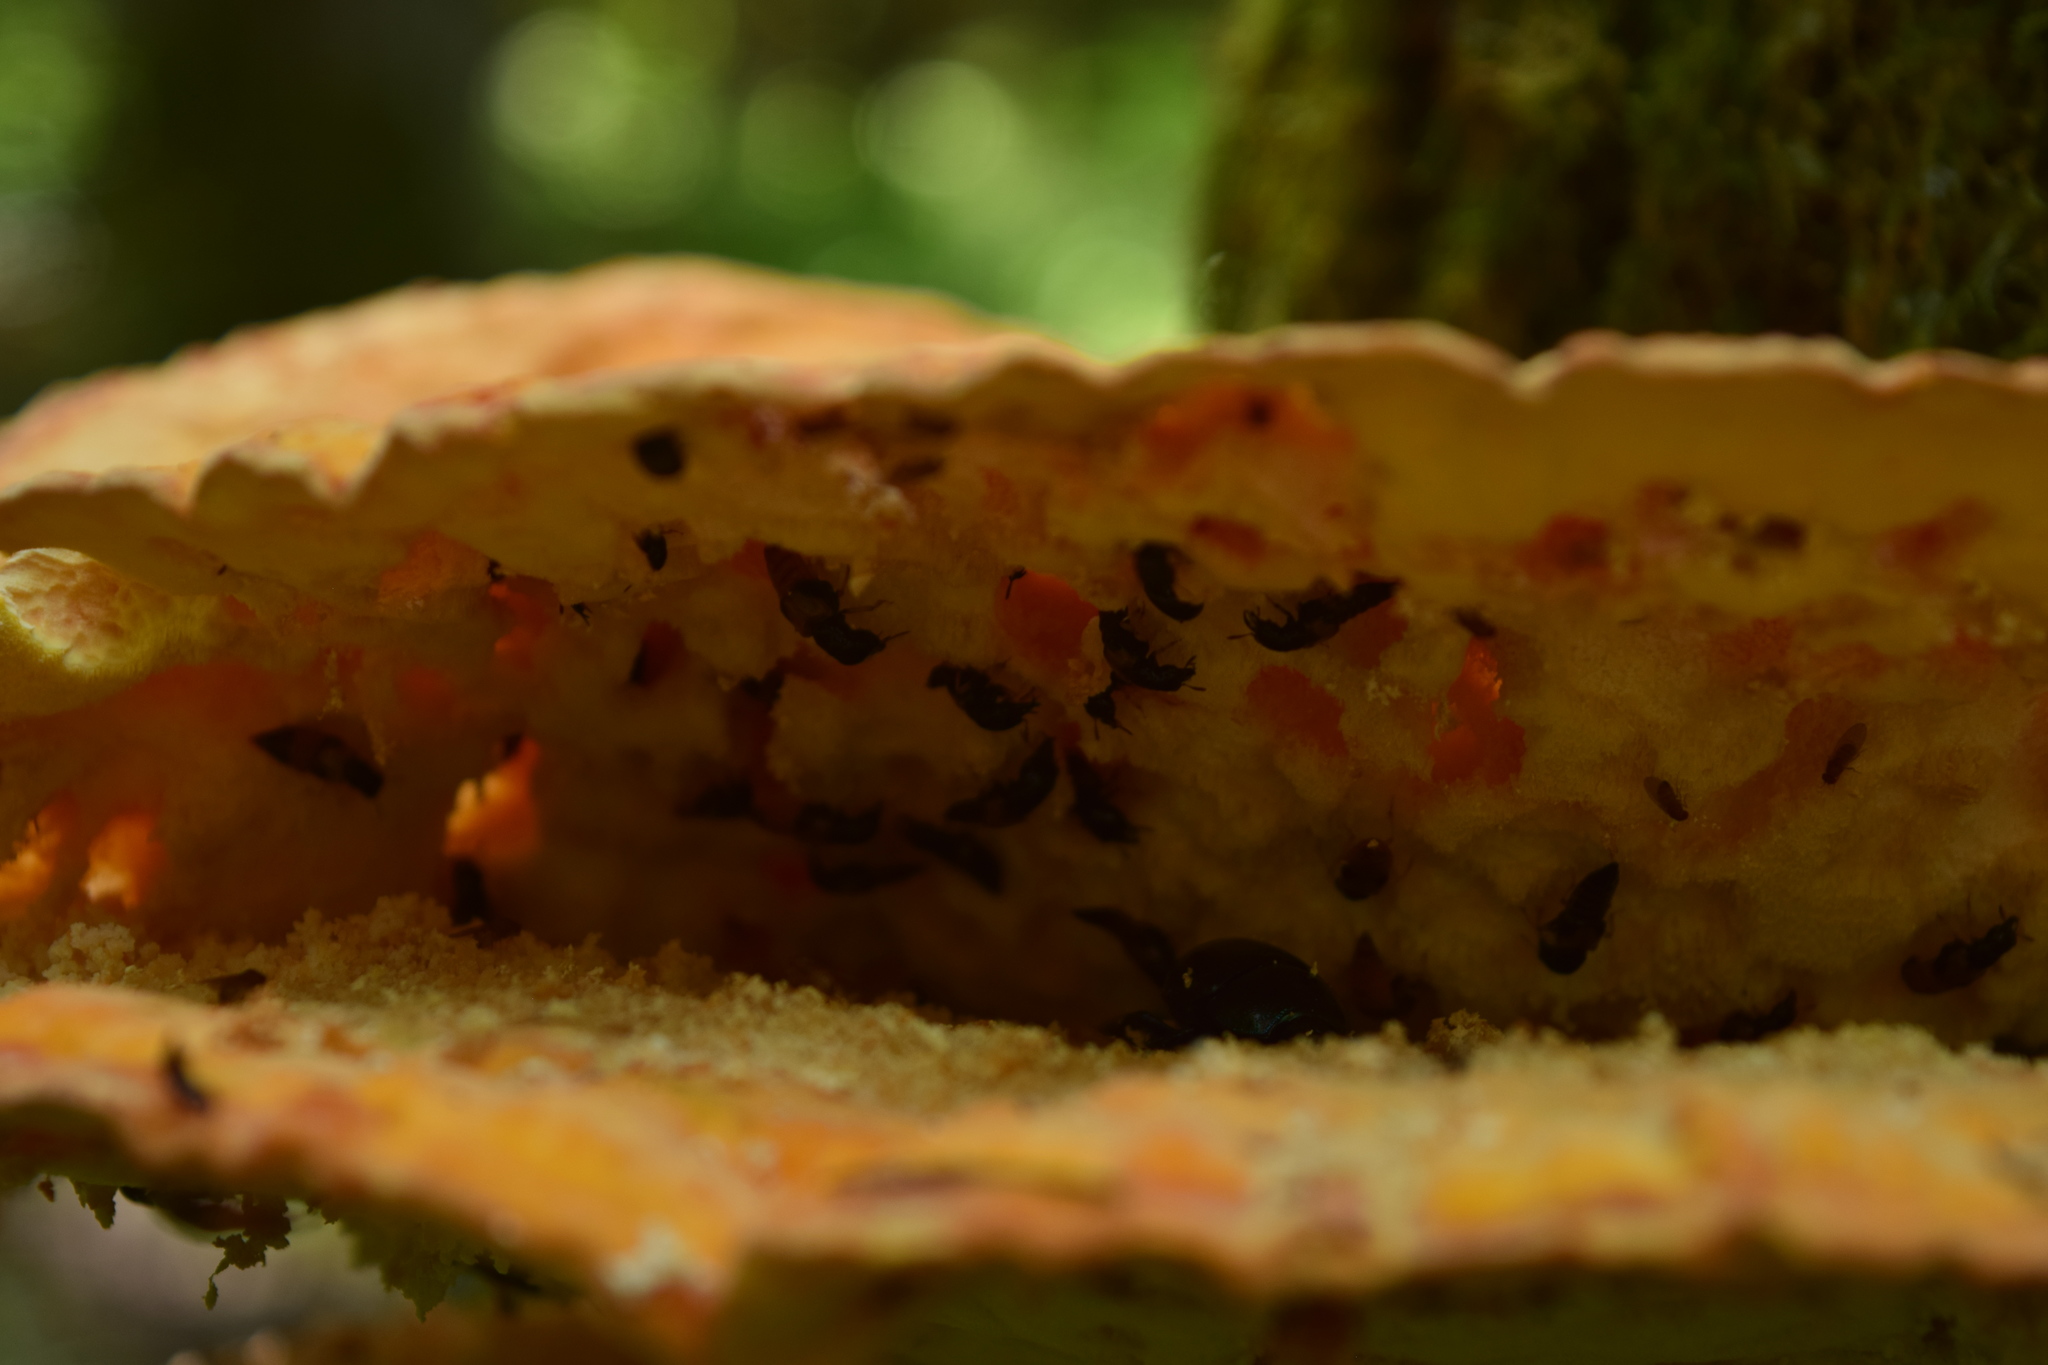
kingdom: Fungi
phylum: Basidiomycota
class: Agaricomycetes
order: Polyporales
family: Laetiporaceae
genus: Laetiporus
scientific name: Laetiporus sulphureus
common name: Chicken of the woods
